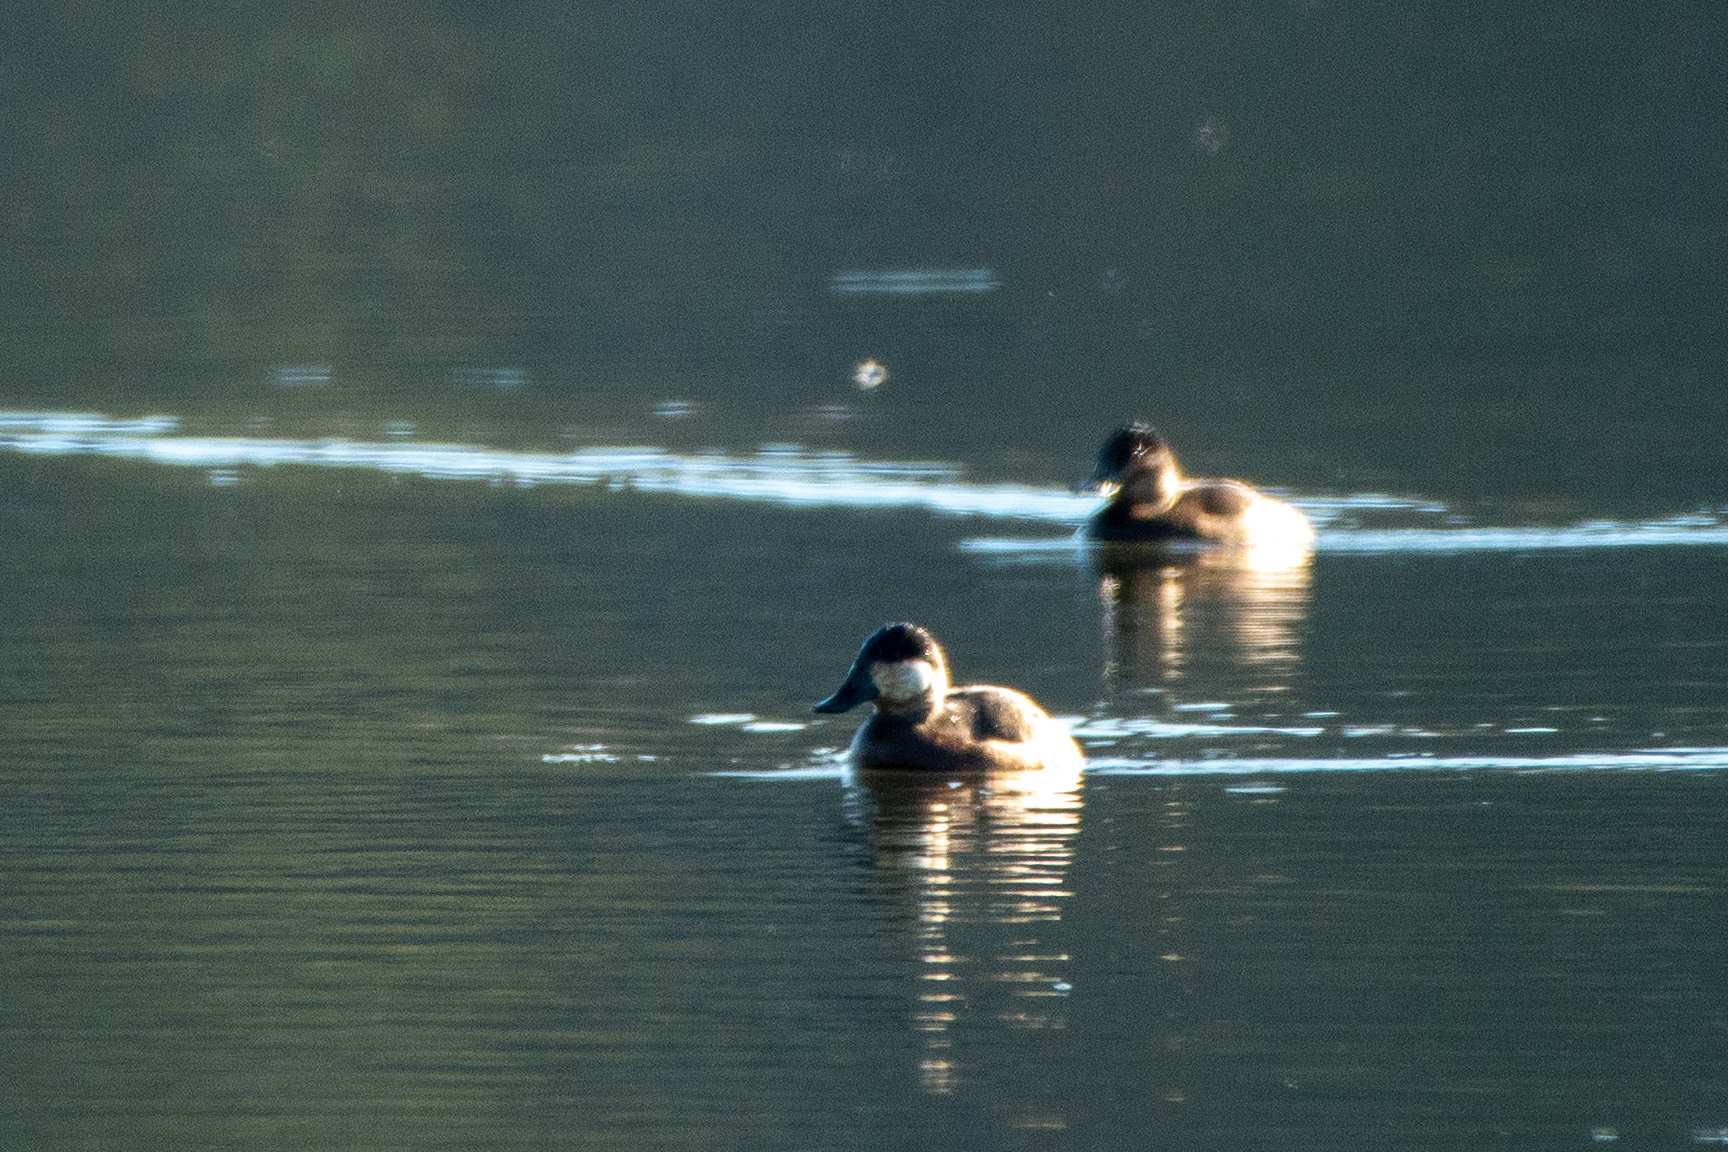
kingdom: Animalia
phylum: Chordata
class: Aves
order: Anseriformes
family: Anatidae
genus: Oxyura
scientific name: Oxyura jamaicensis
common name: Ruddy duck
